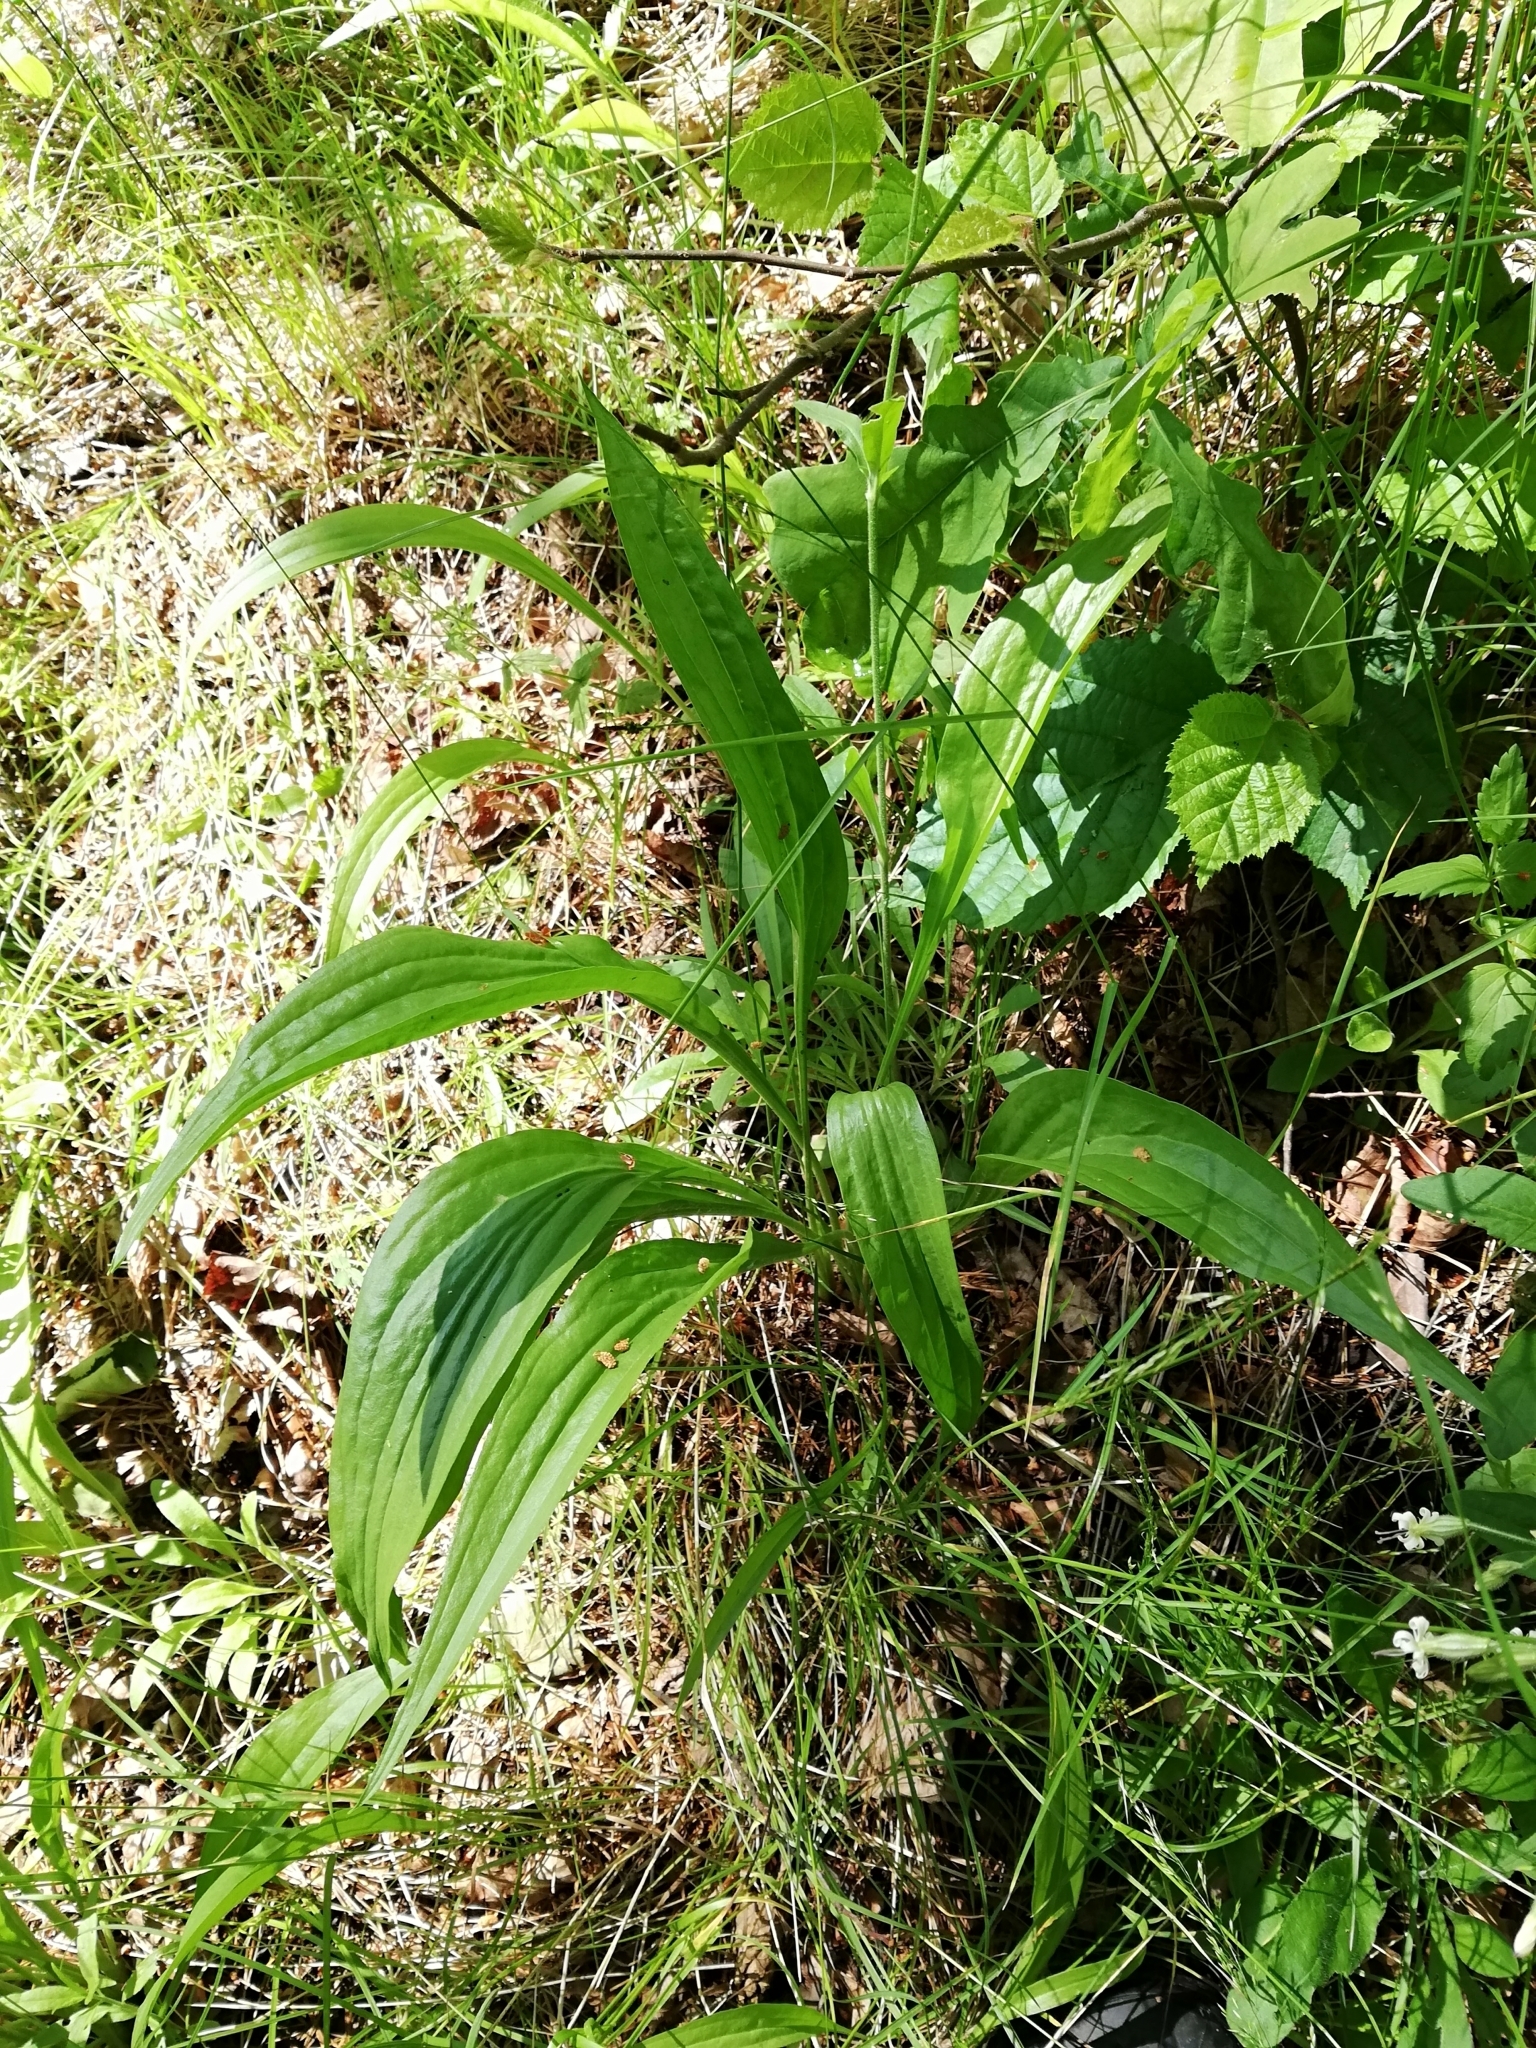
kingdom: Plantae
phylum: Tracheophyta
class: Magnoliopsida
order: Asterales
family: Asteraceae
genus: Scorzonera
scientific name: Scorzonera humilis
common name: Viper's-grass
